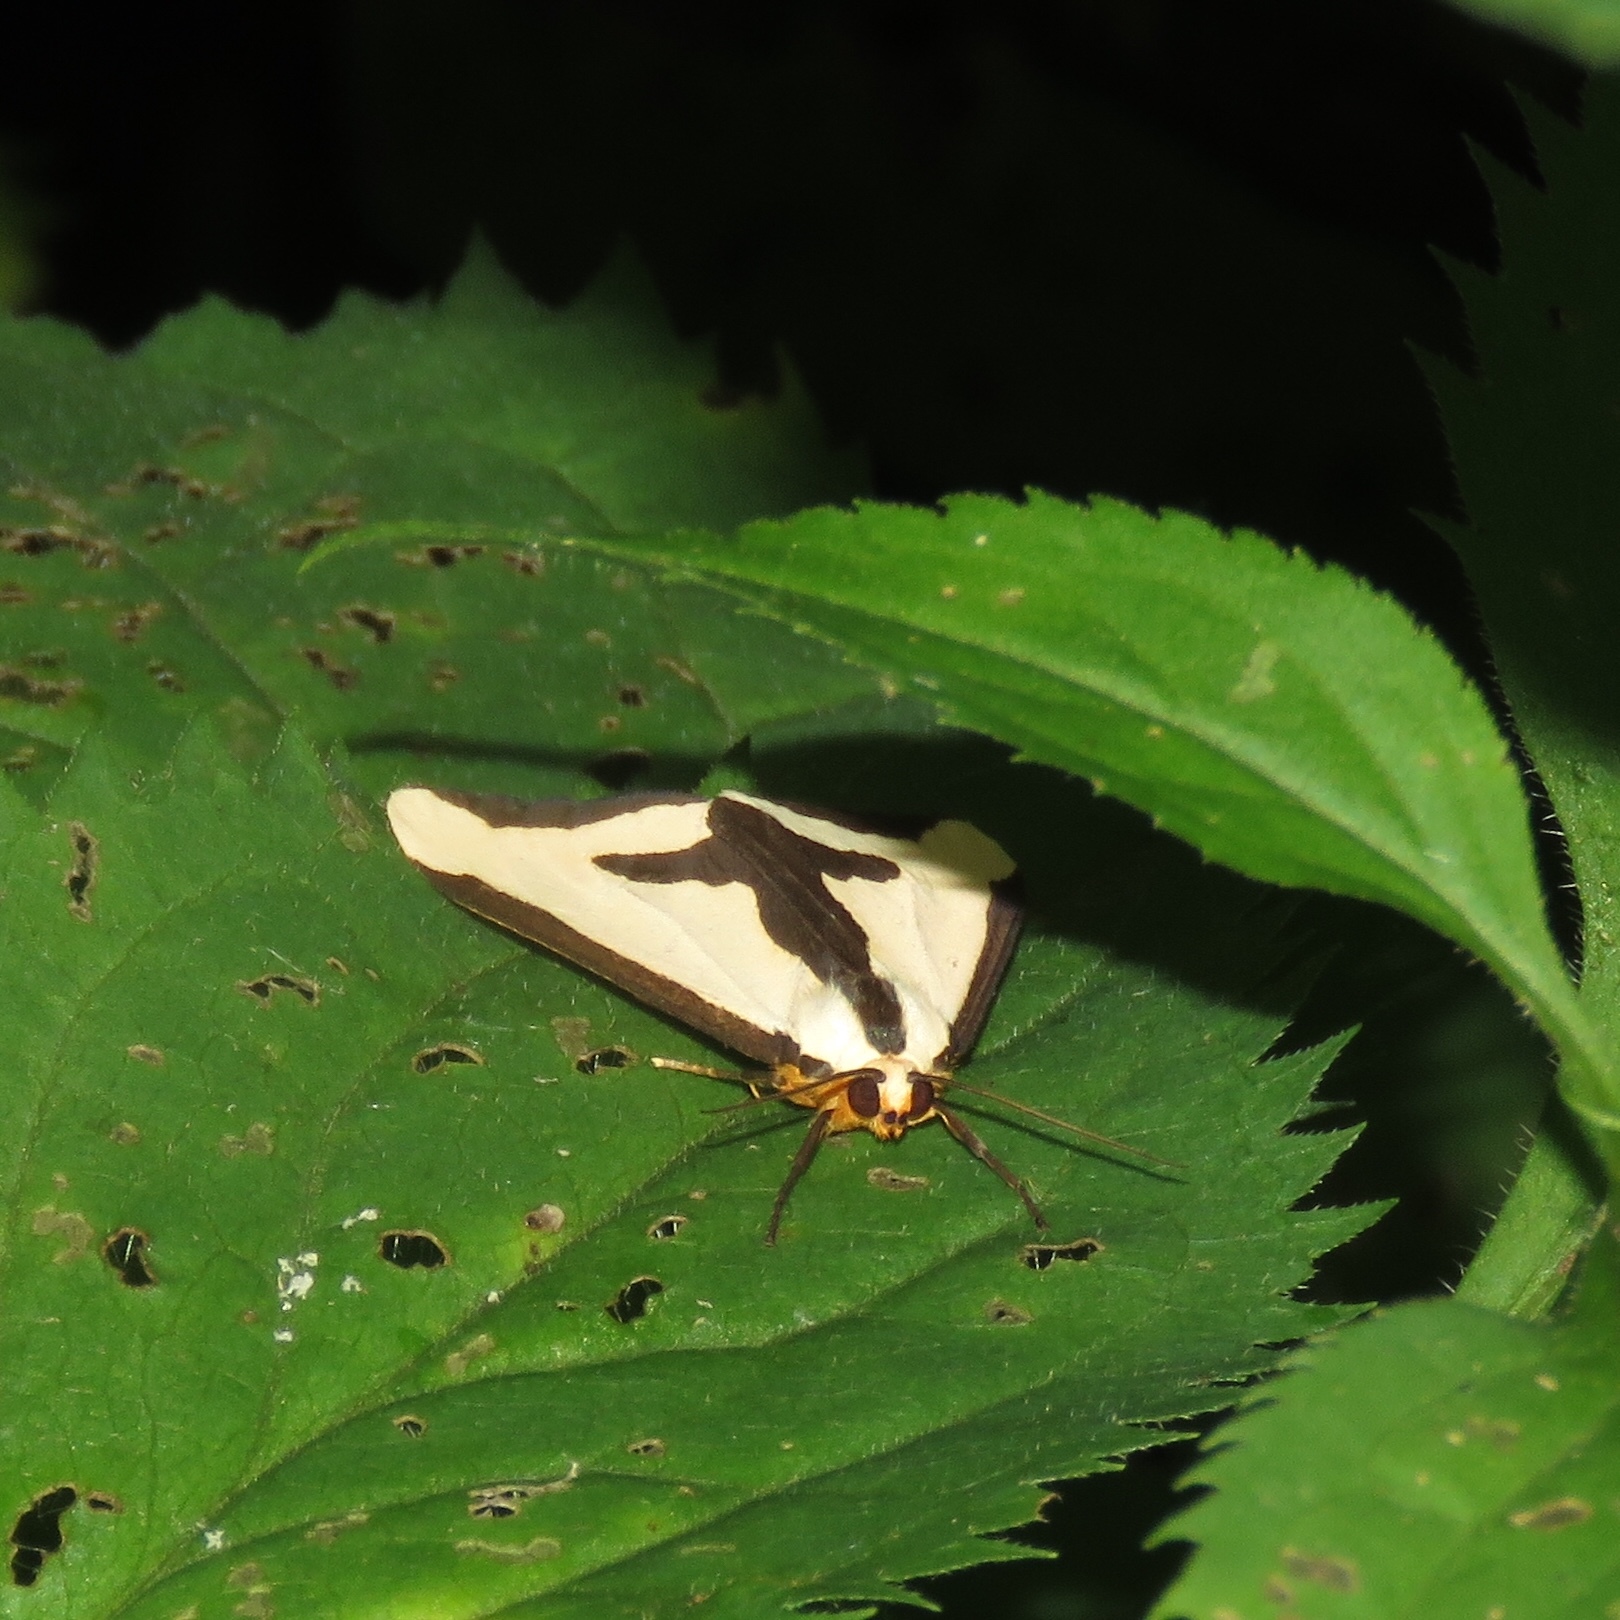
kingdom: Animalia
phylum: Arthropoda
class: Insecta
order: Lepidoptera
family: Erebidae
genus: Haploa
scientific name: Haploa clymene
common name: Clymene moth
